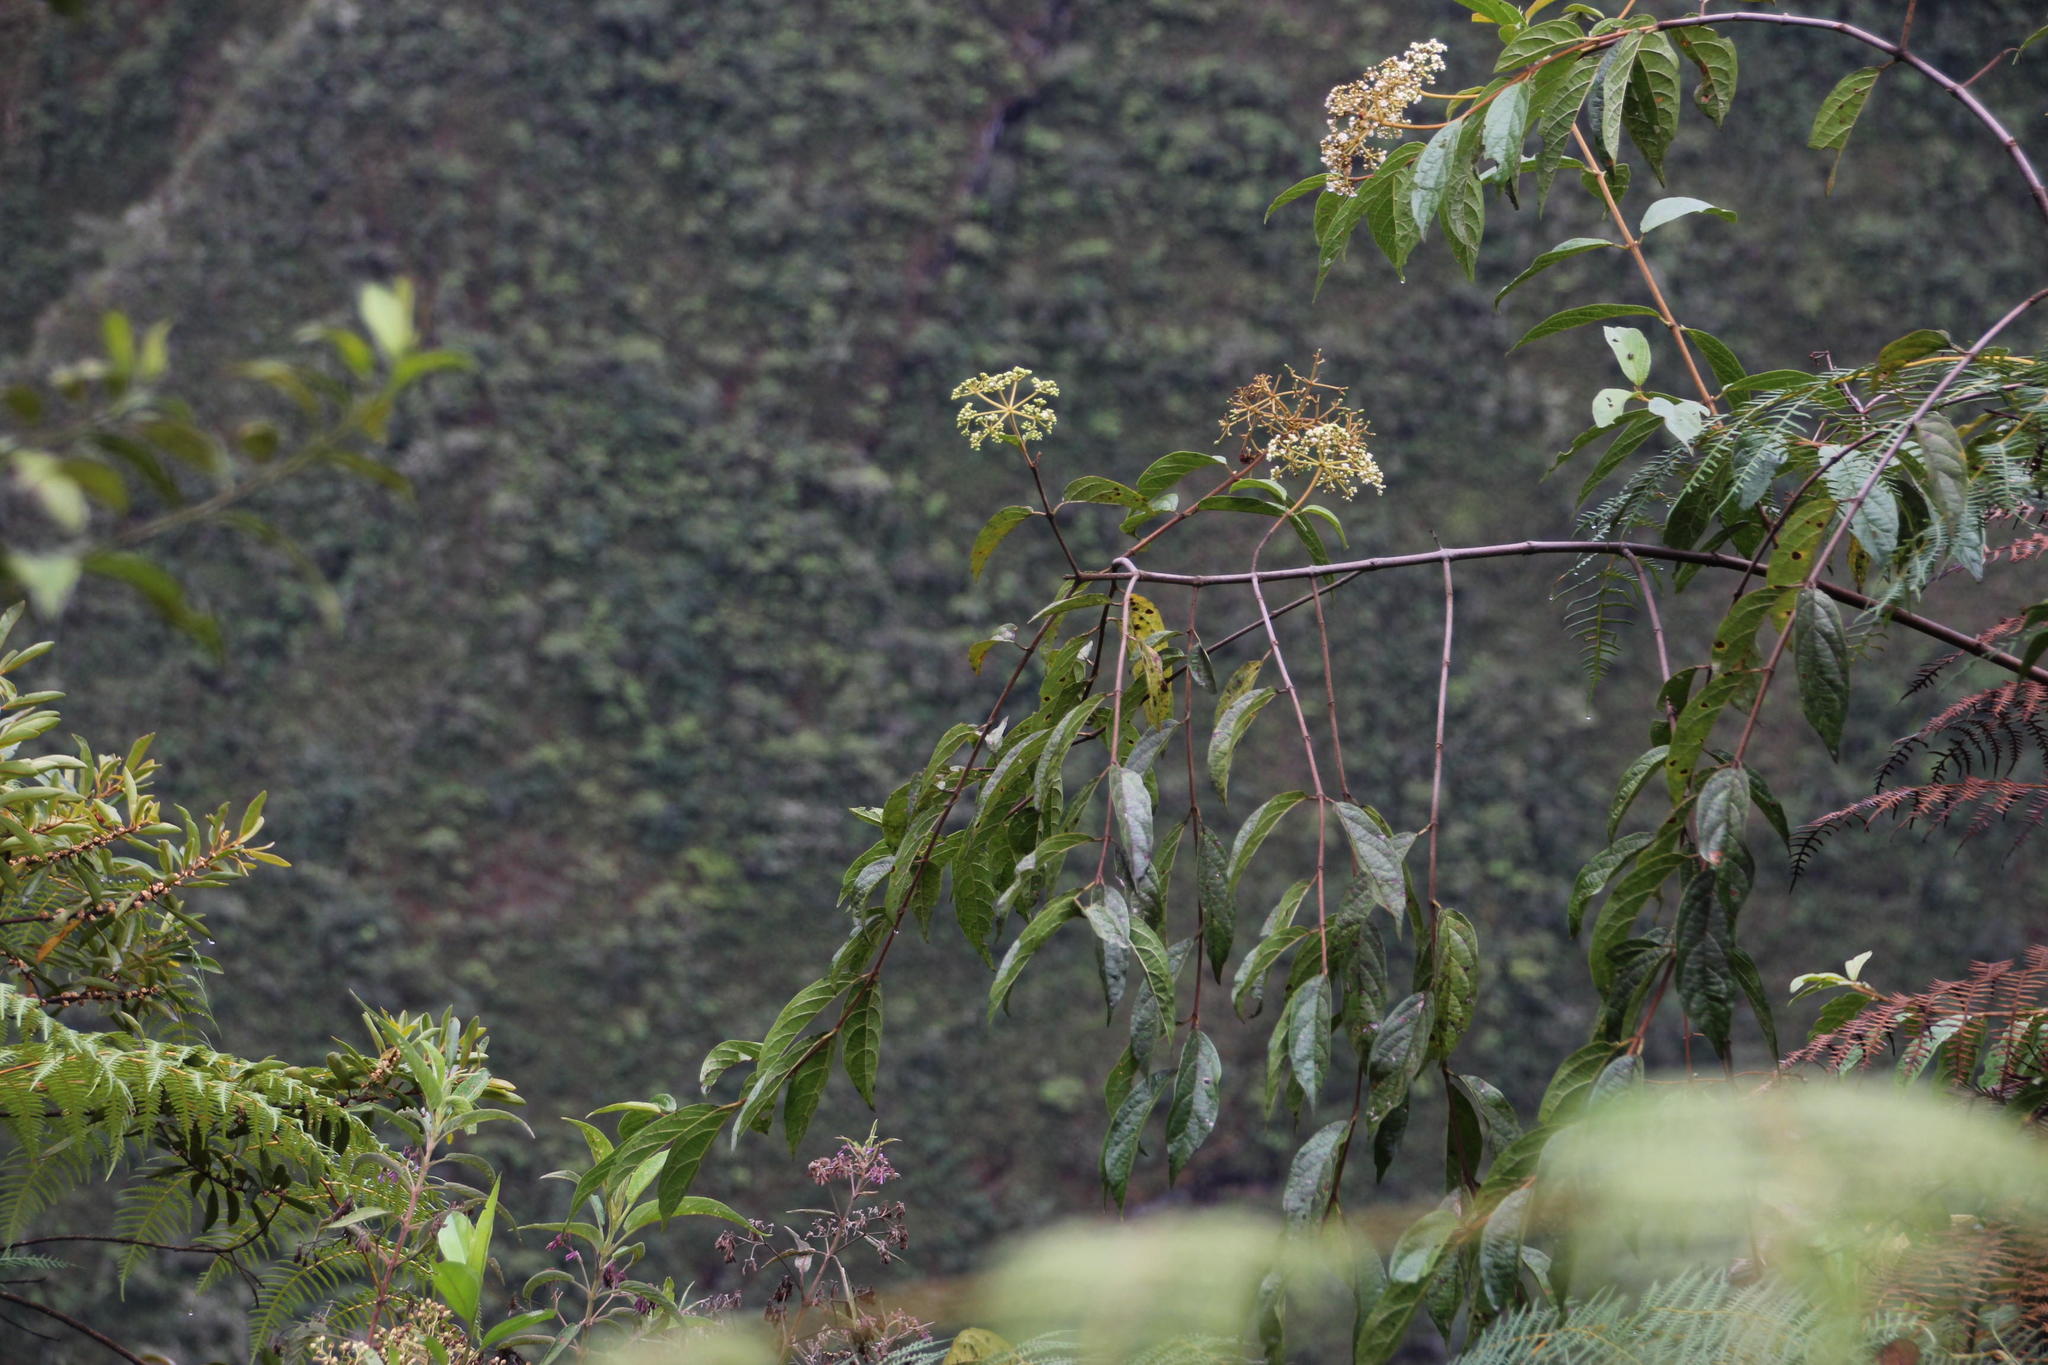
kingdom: Plantae
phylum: Tracheophyta
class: Magnoliopsida
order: Dipsacales
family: Viburnaceae
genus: Viburnum
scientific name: Viburnum hallii
